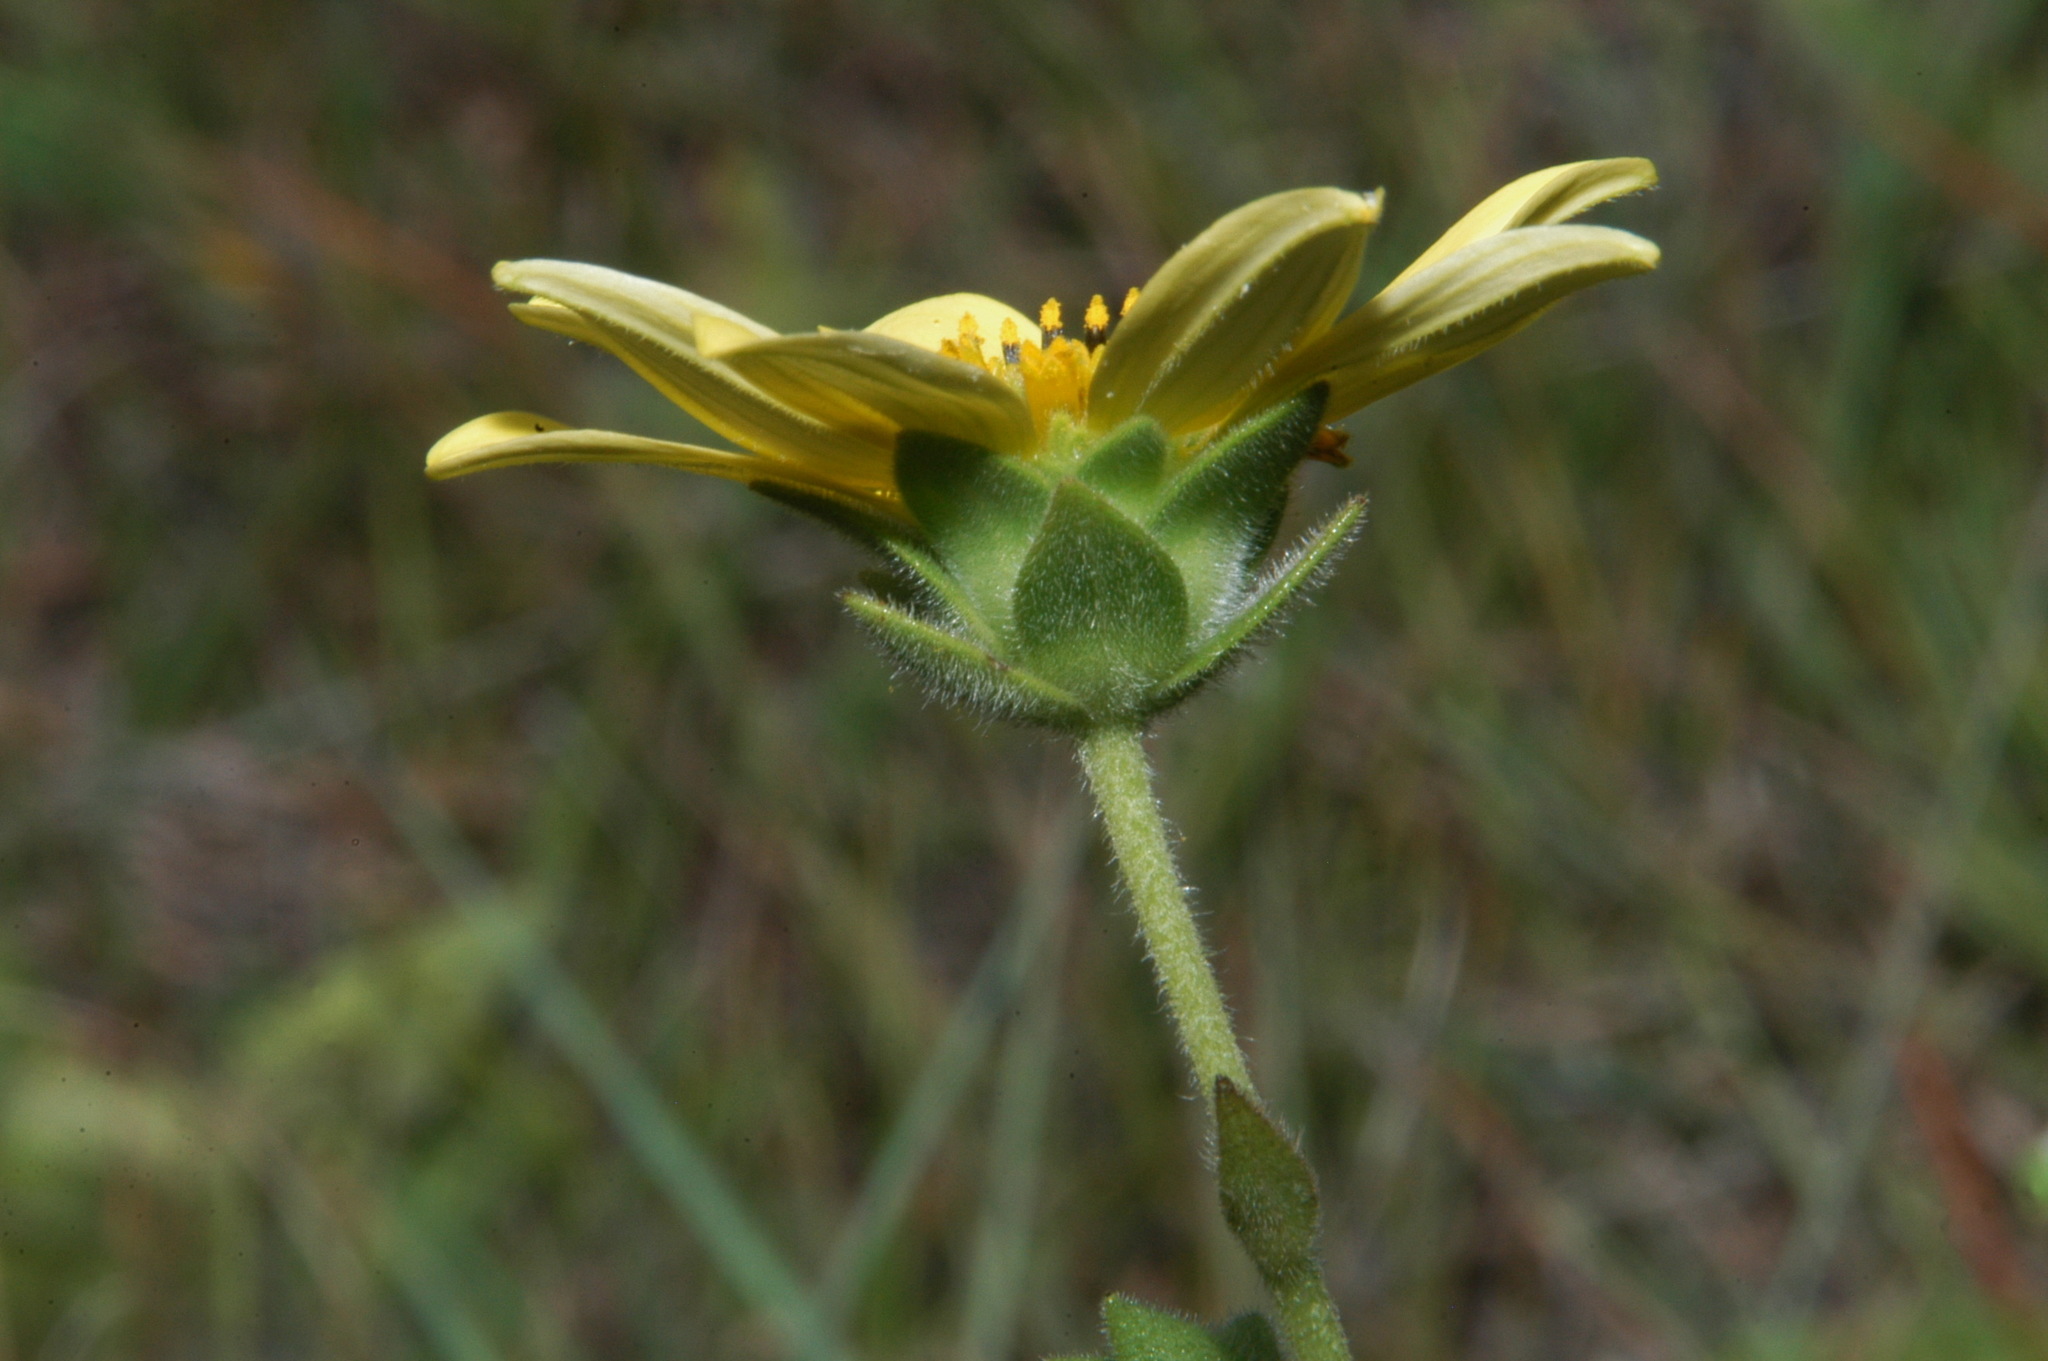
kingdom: Plantae
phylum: Tracheophyta
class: Magnoliopsida
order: Asterales
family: Asteraceae
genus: Silphium
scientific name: Silphium mohrii
